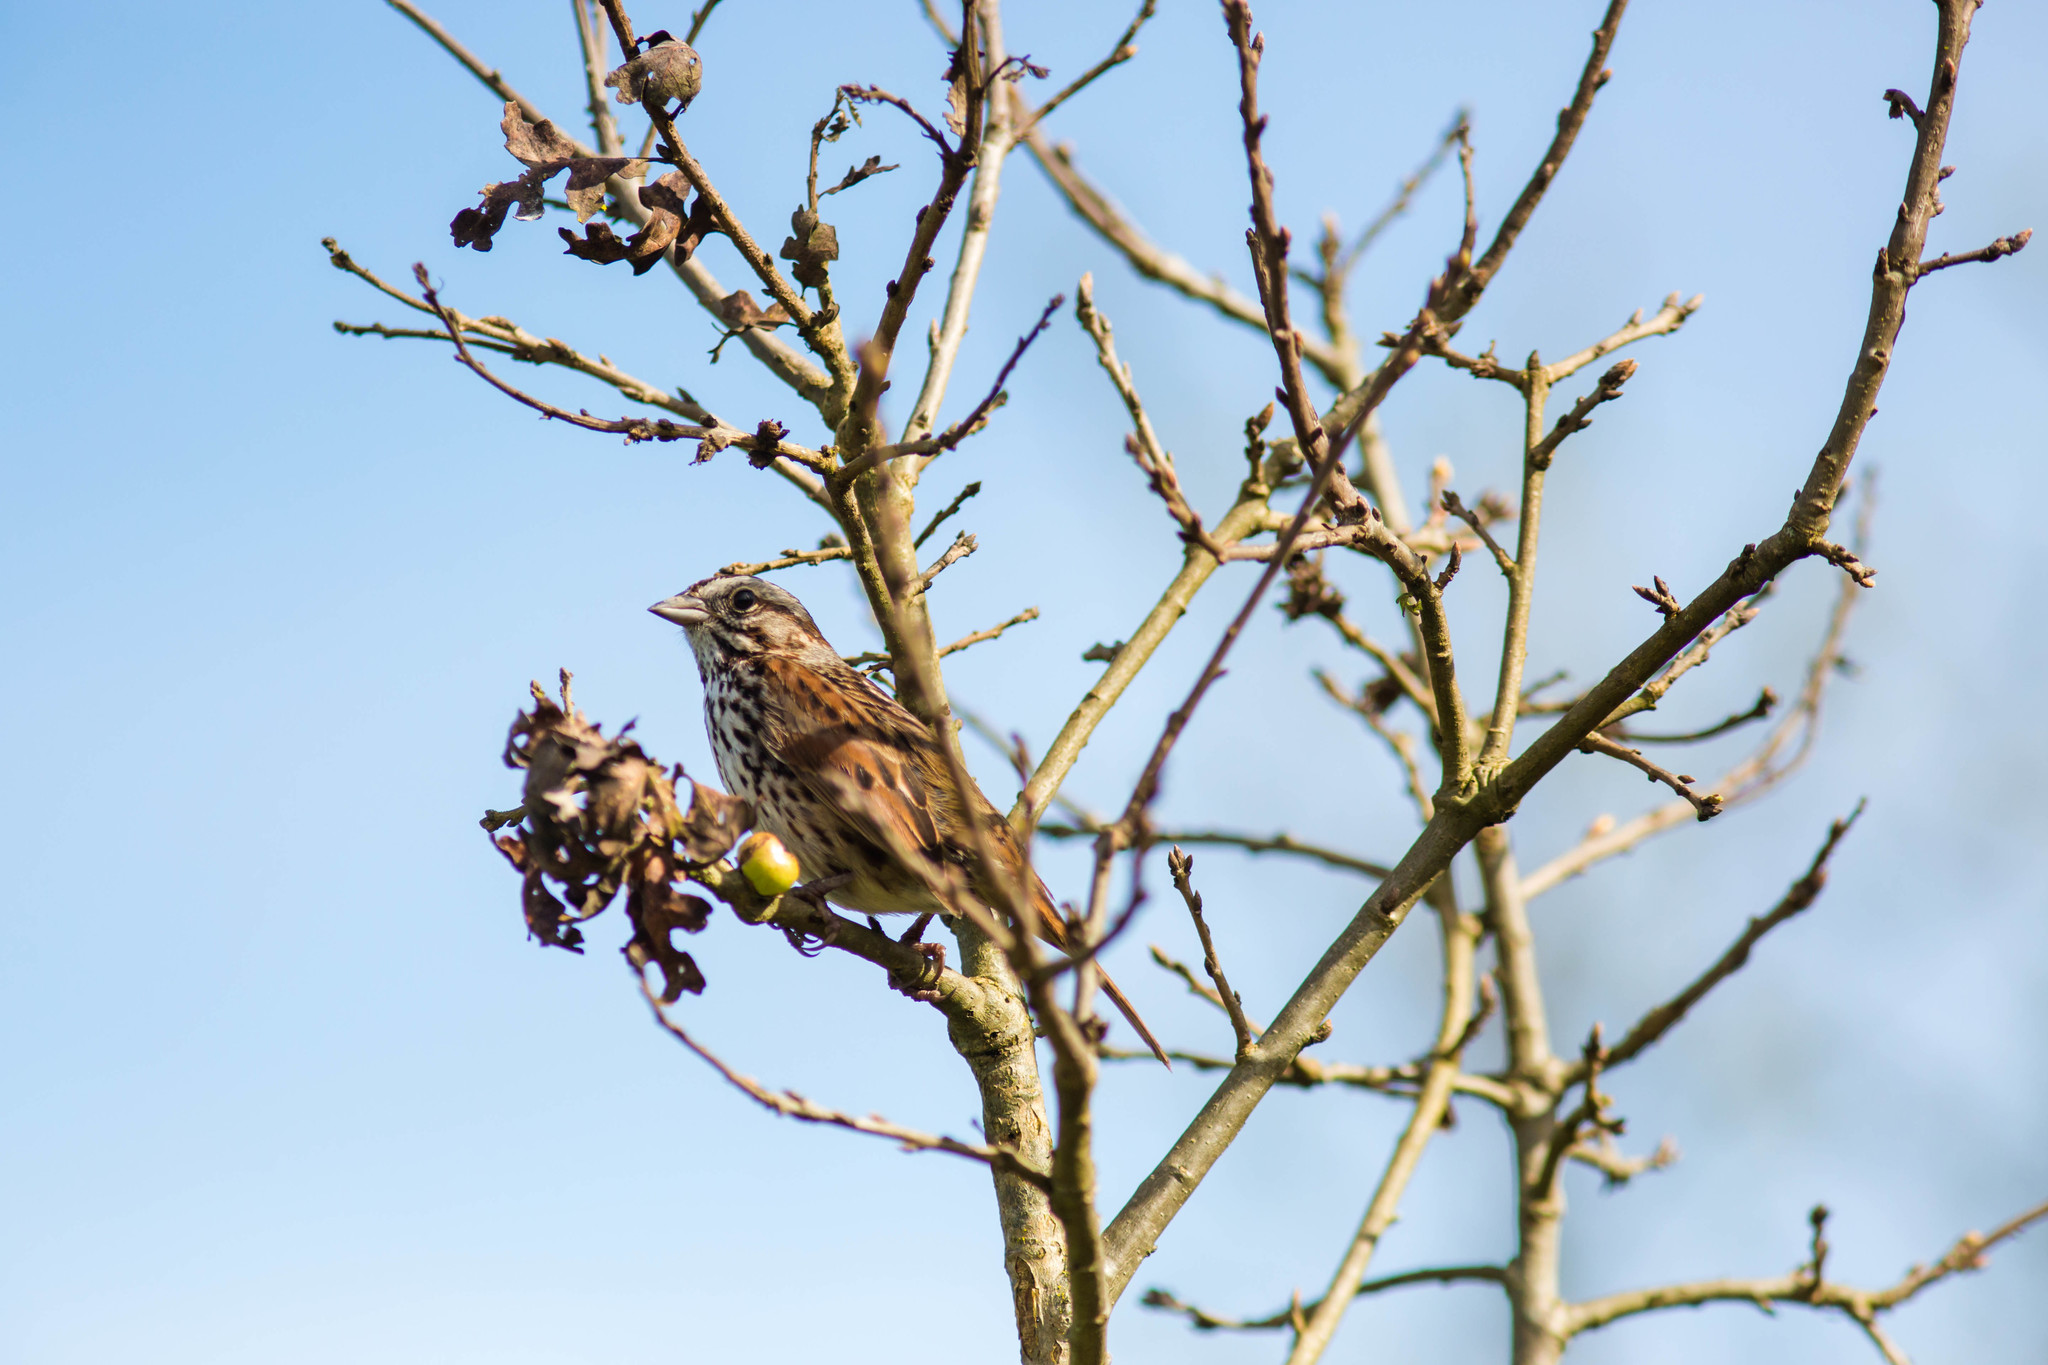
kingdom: Animalia
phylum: Chordata
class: Aves
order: Passeriformes
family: Passerellidae
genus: Melospiza
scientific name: Melospiza melodia
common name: Song sparrow
